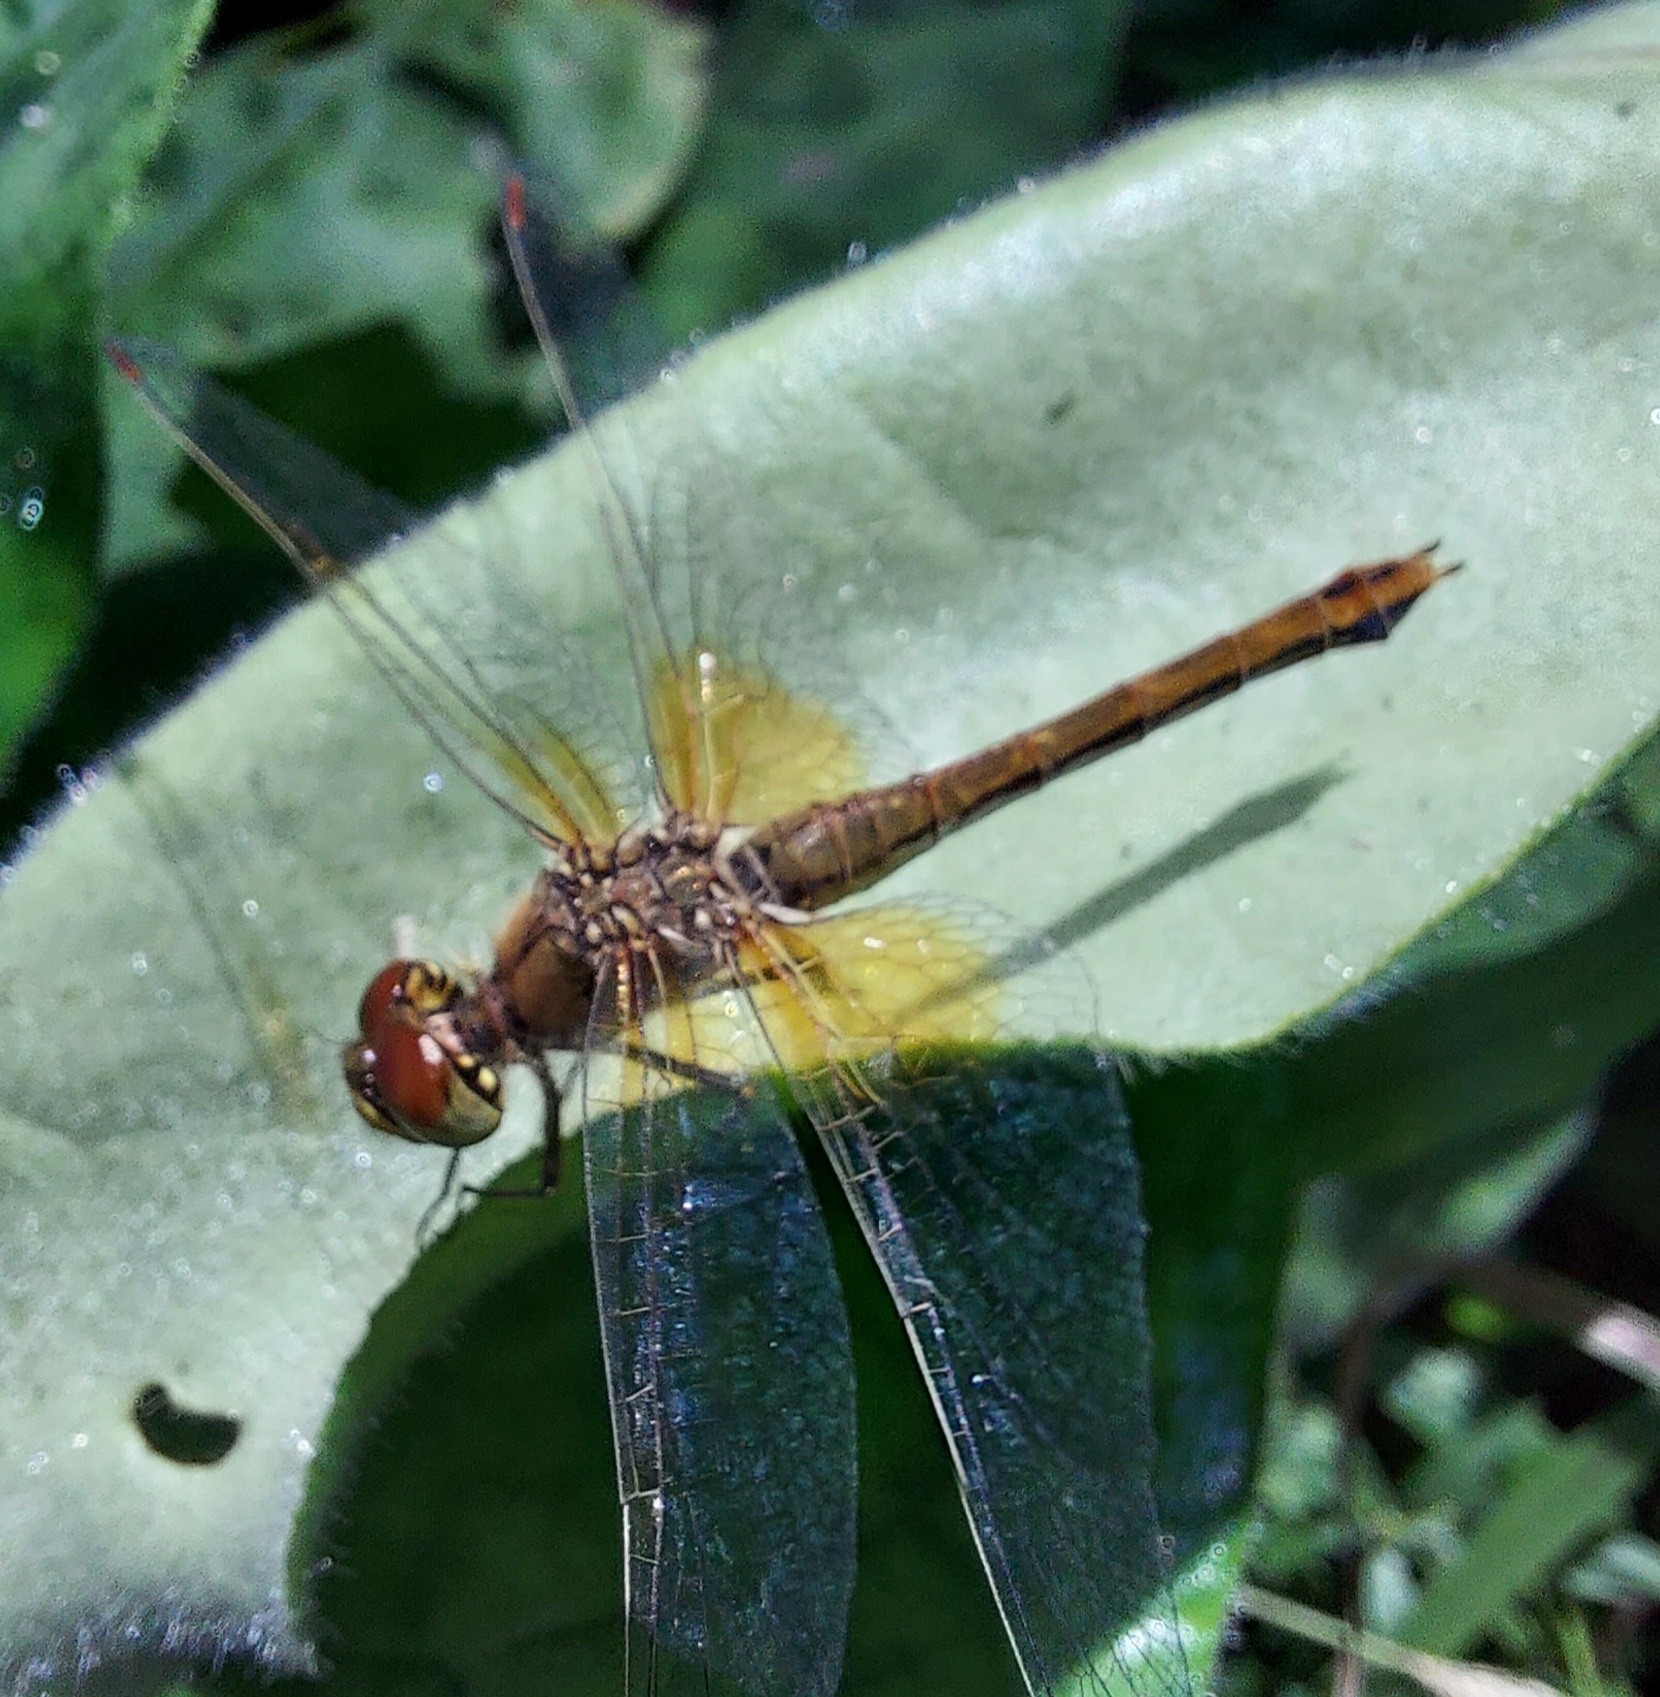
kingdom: Animalia
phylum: Arthropoda
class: Insecta
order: Odonata
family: Libellulidae
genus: Sympetrum
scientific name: Sympetrum flaveolum
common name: Yellow-winged darter
